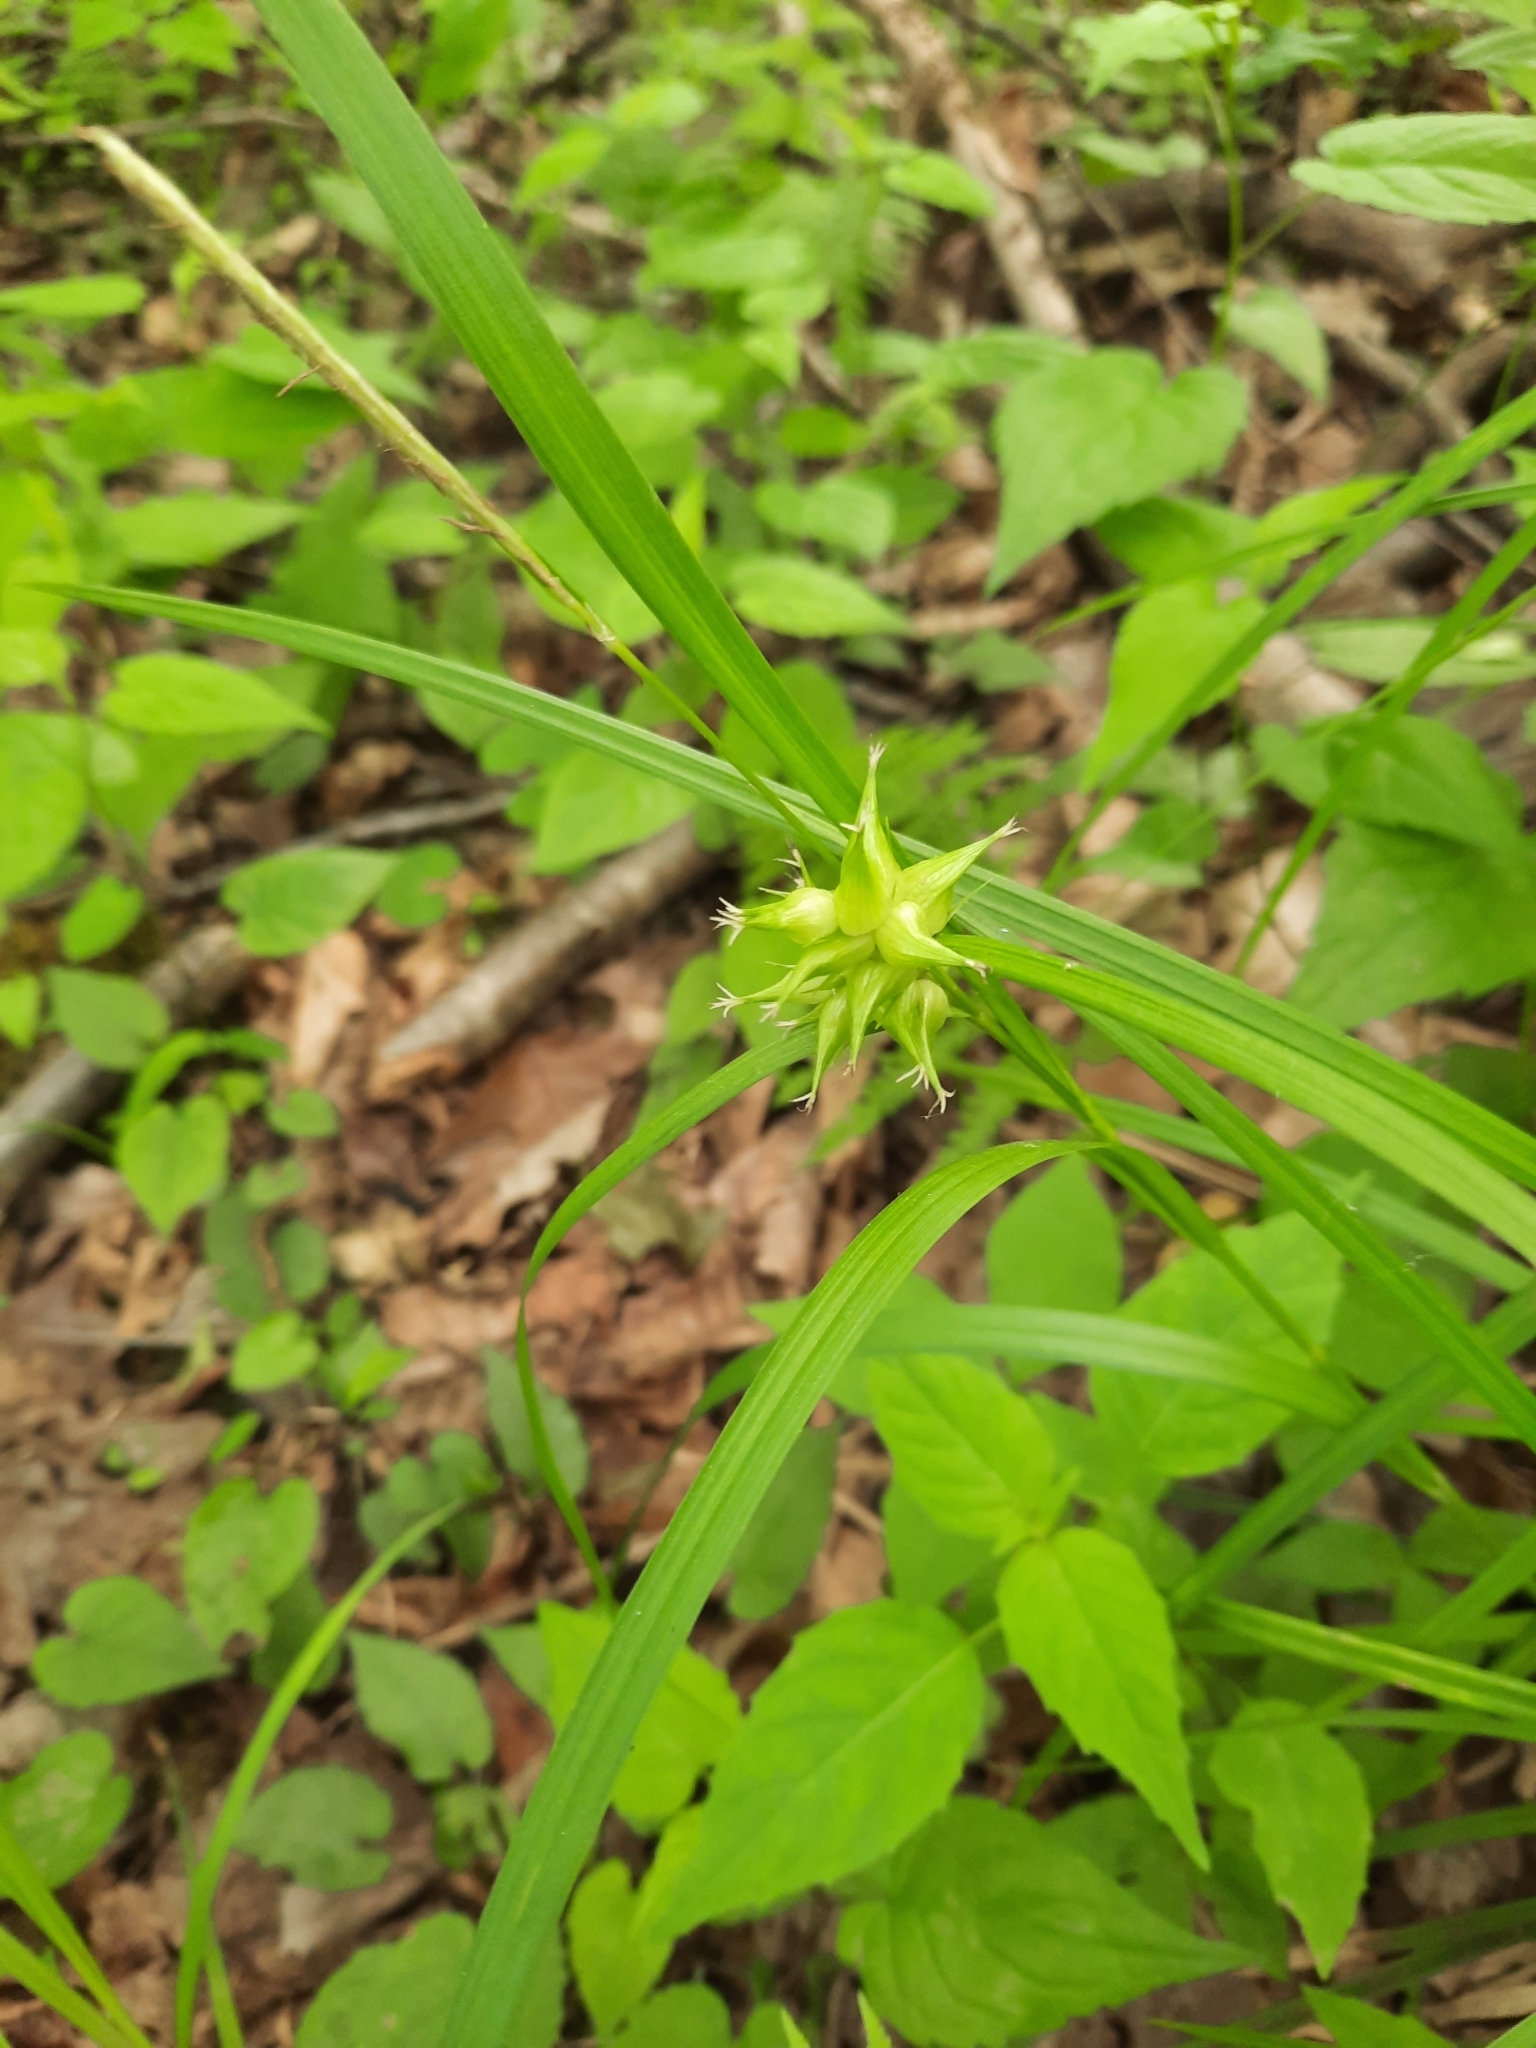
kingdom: Plantae
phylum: Tracheophyta
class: Liliopsida
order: Poales
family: Cyperaceae
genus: Carex
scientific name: Carex intumescens
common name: Greater bladder sedge
